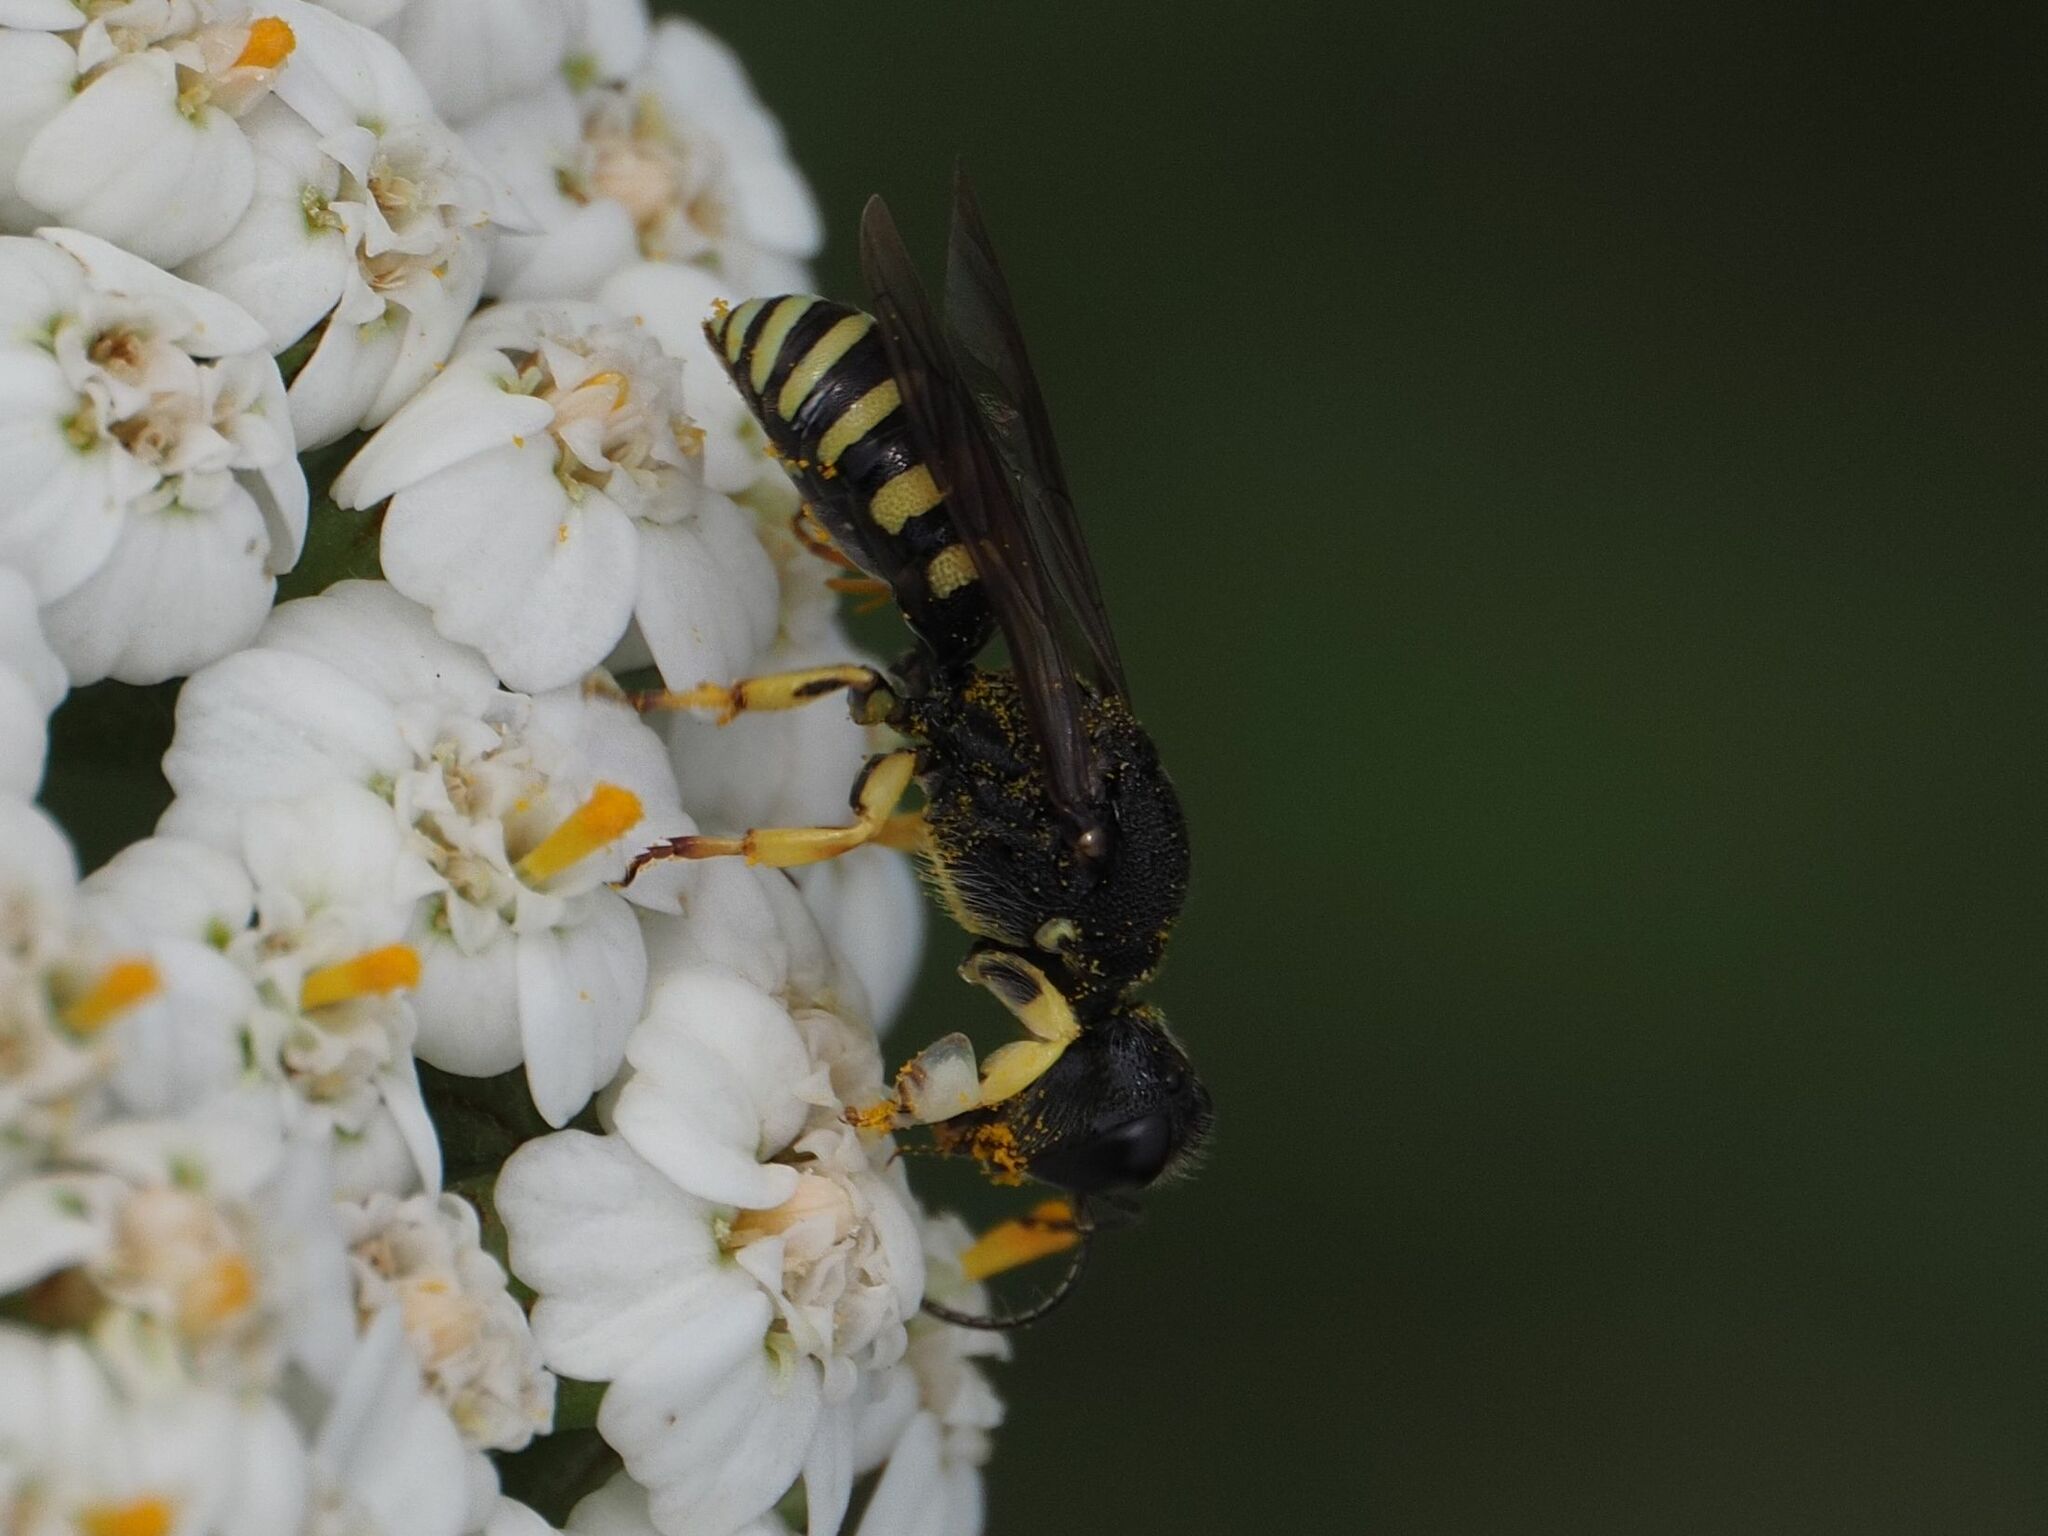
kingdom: Animalia
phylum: Arthropoda
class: Insecta
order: Hymenoptera
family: Crabronidae
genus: Lestica
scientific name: Lestica clypeata
